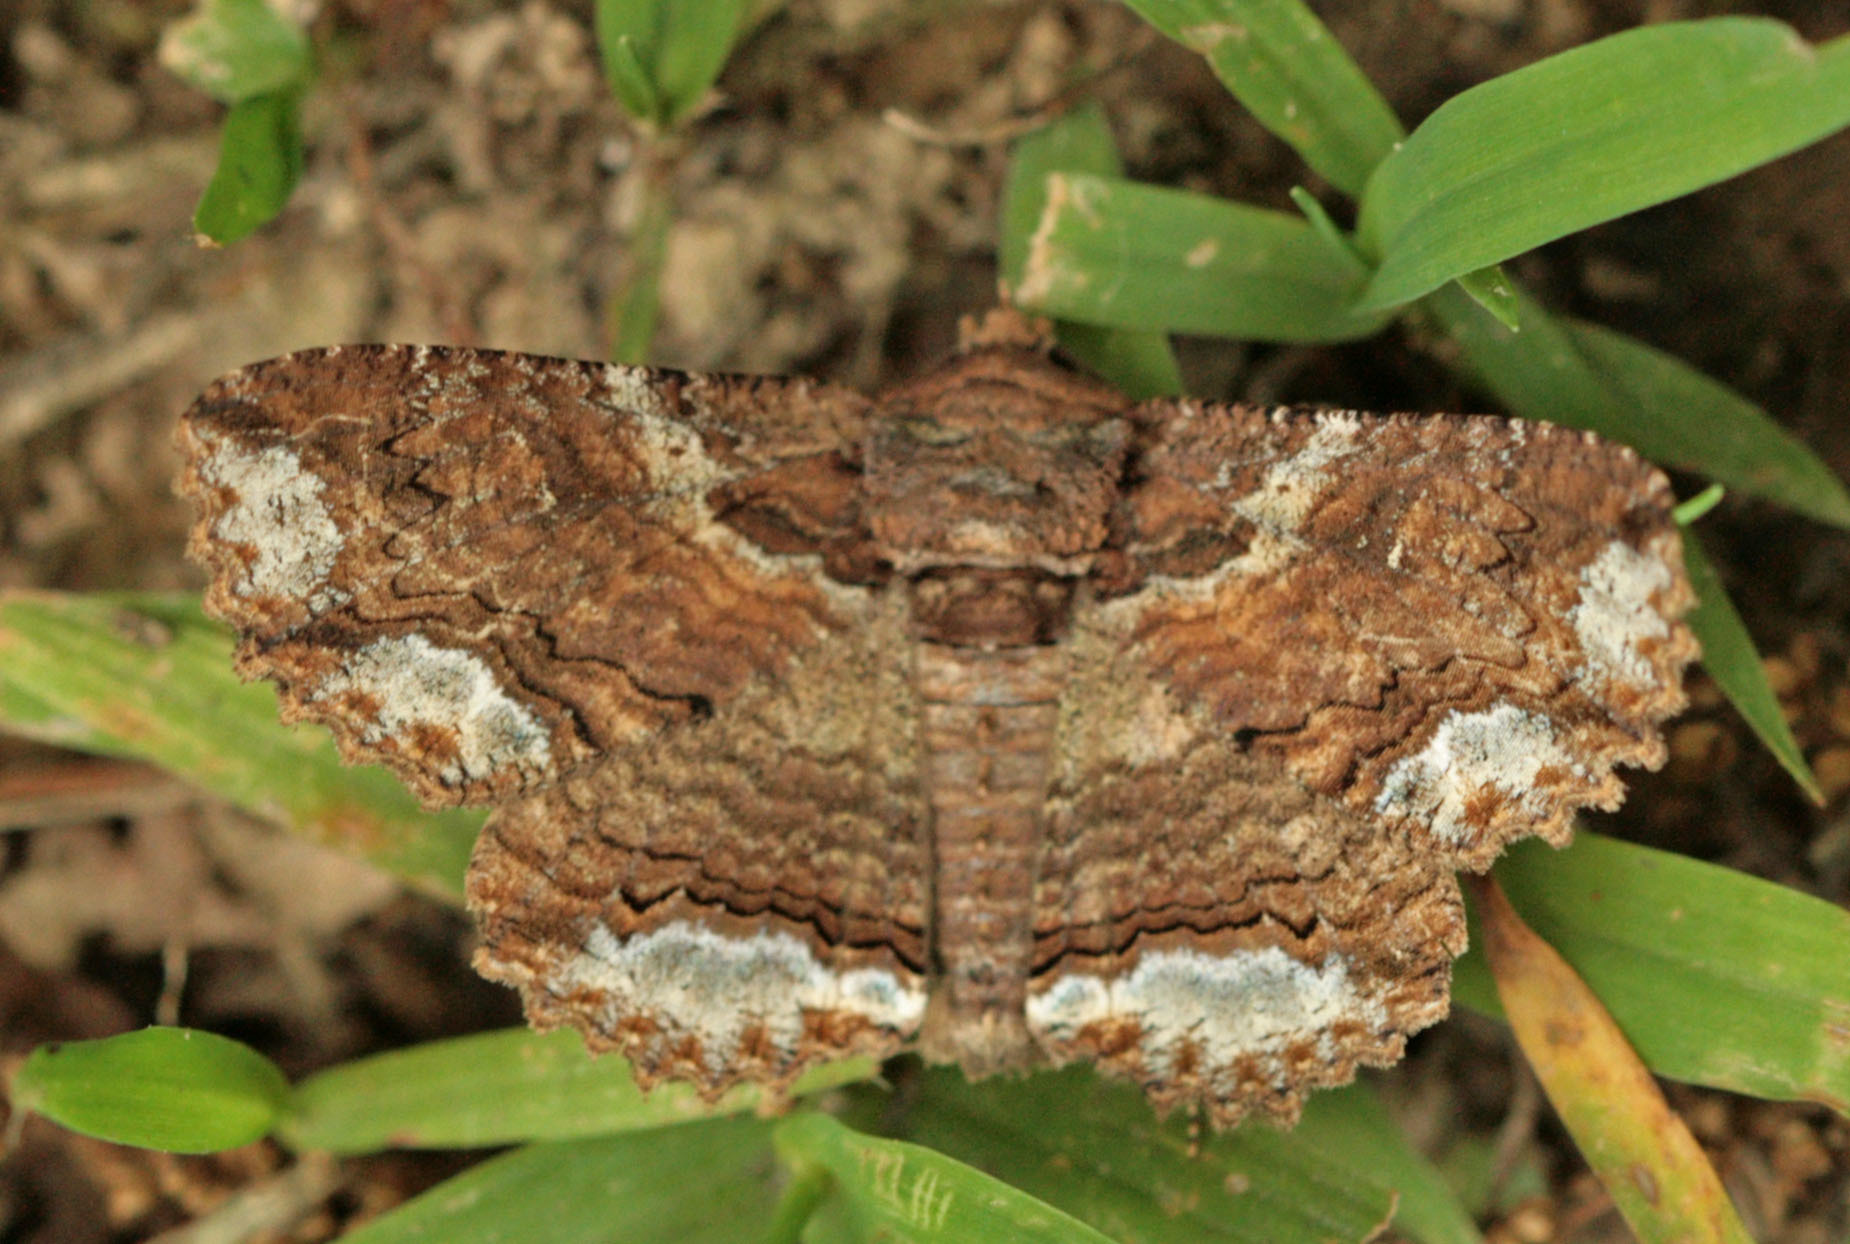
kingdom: Animalia
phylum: Arthropoda
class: Insecta
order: Lepidoptera
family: Erebidae
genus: Zale
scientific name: Zale lunata
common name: Lunate zale moth
